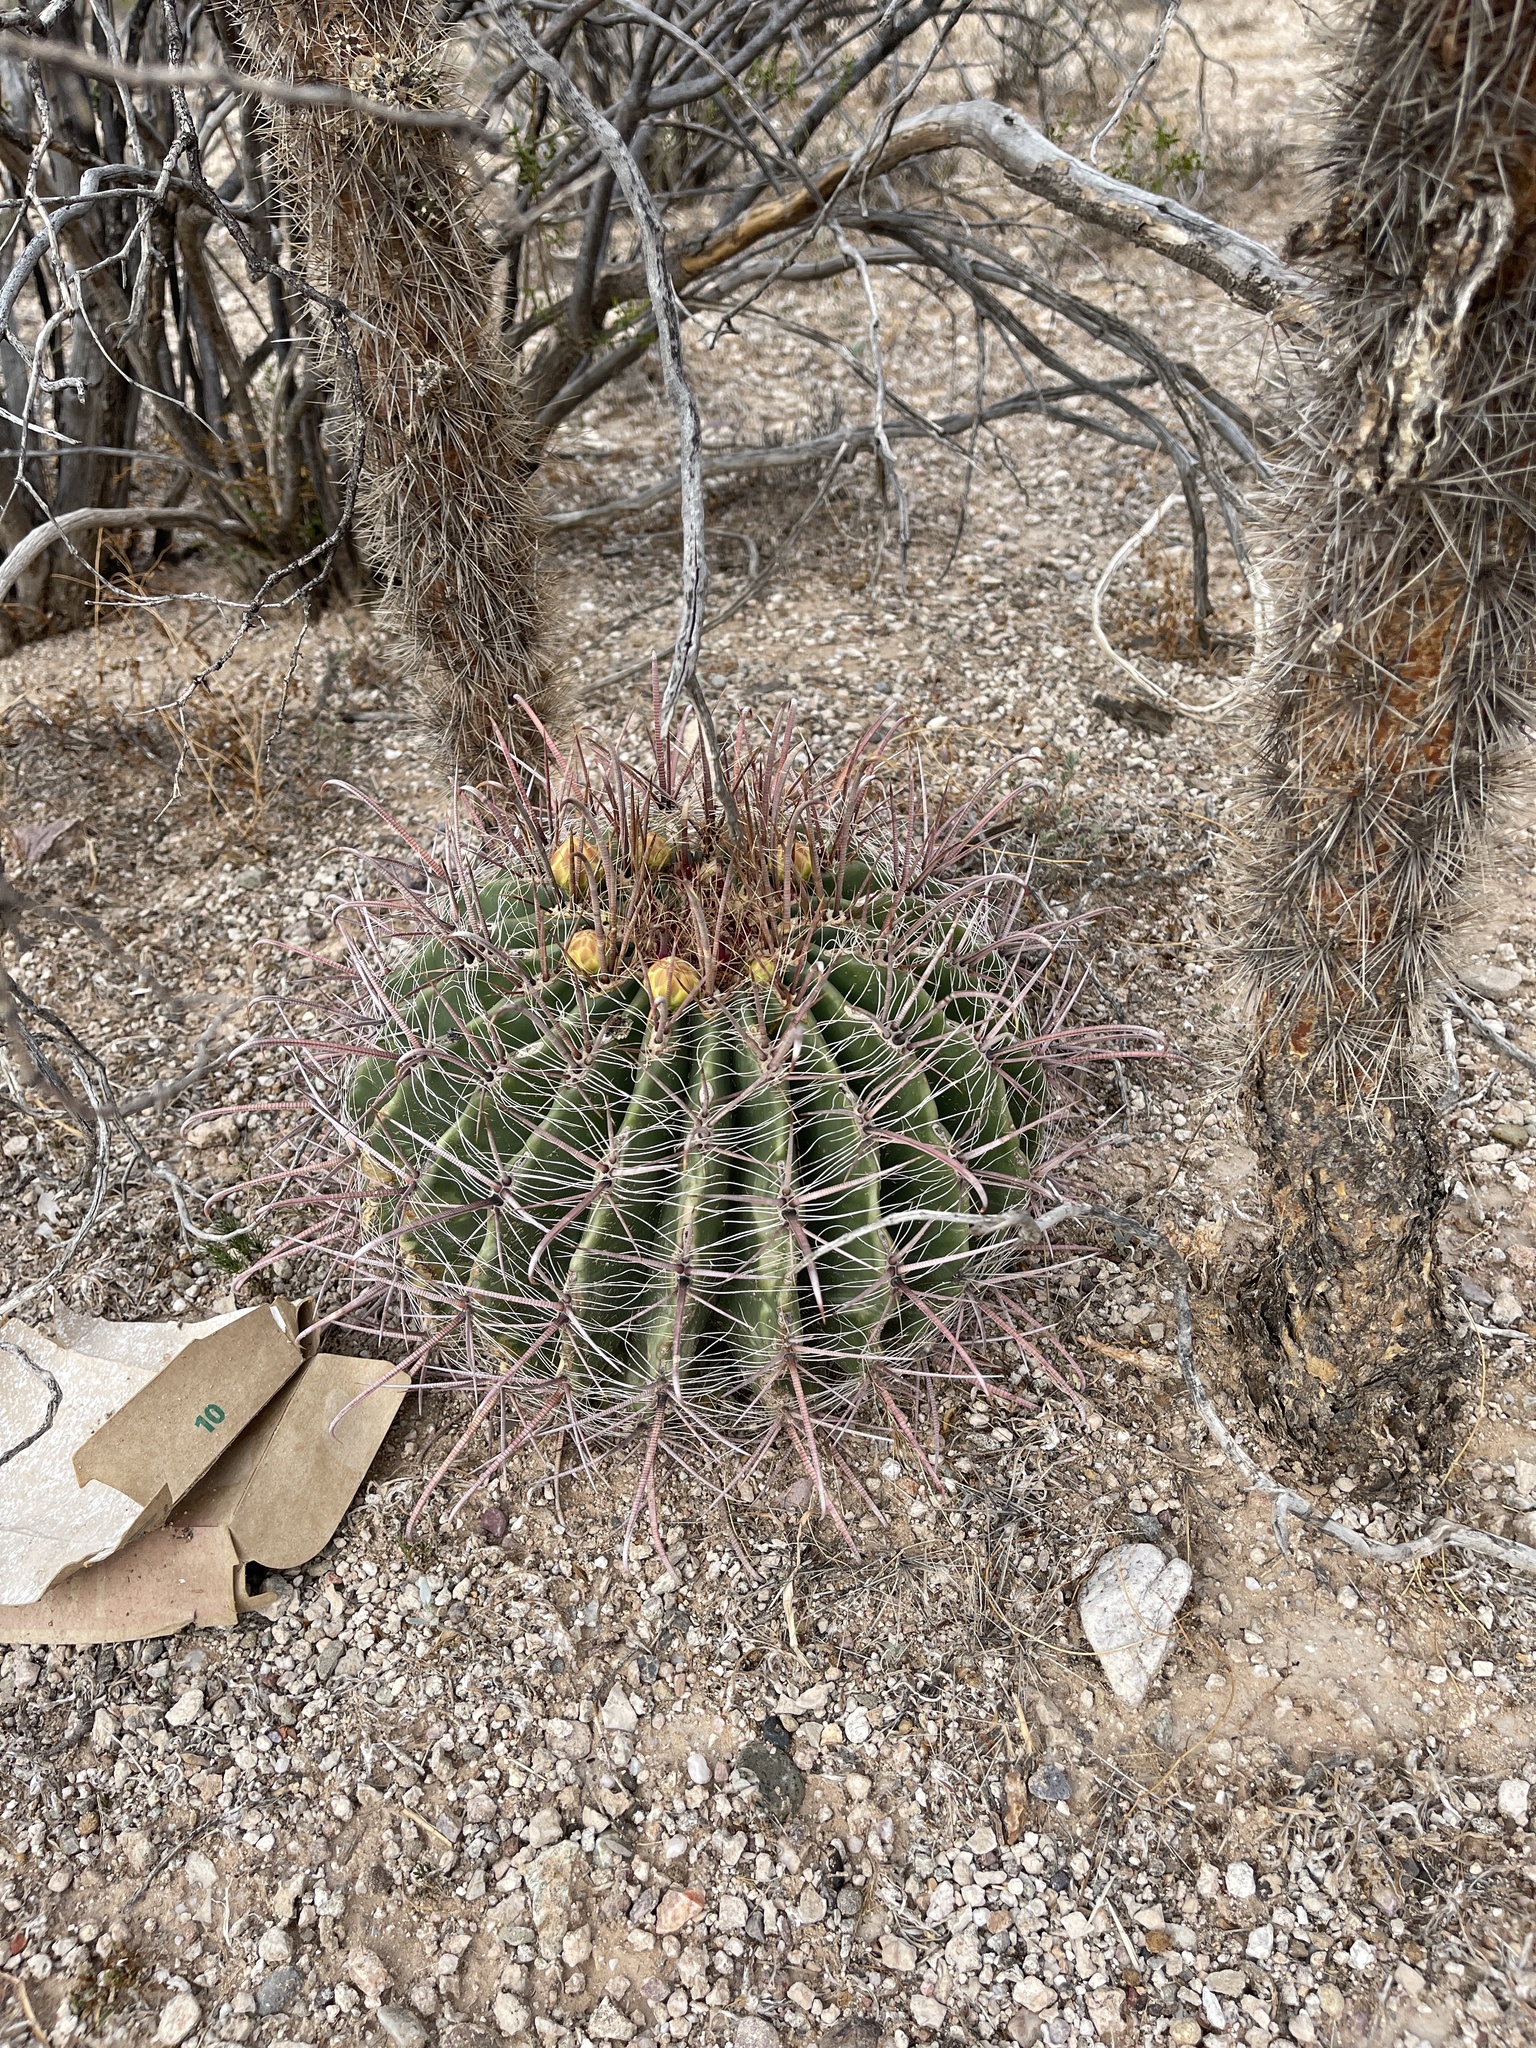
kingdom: Plantae
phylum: Tracheophyta
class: Magnoliopsida
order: Caryophyllales
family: Cactaceae
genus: Ferocactus
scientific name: Ferocactus wislizeni
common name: Candy barrel cactus
